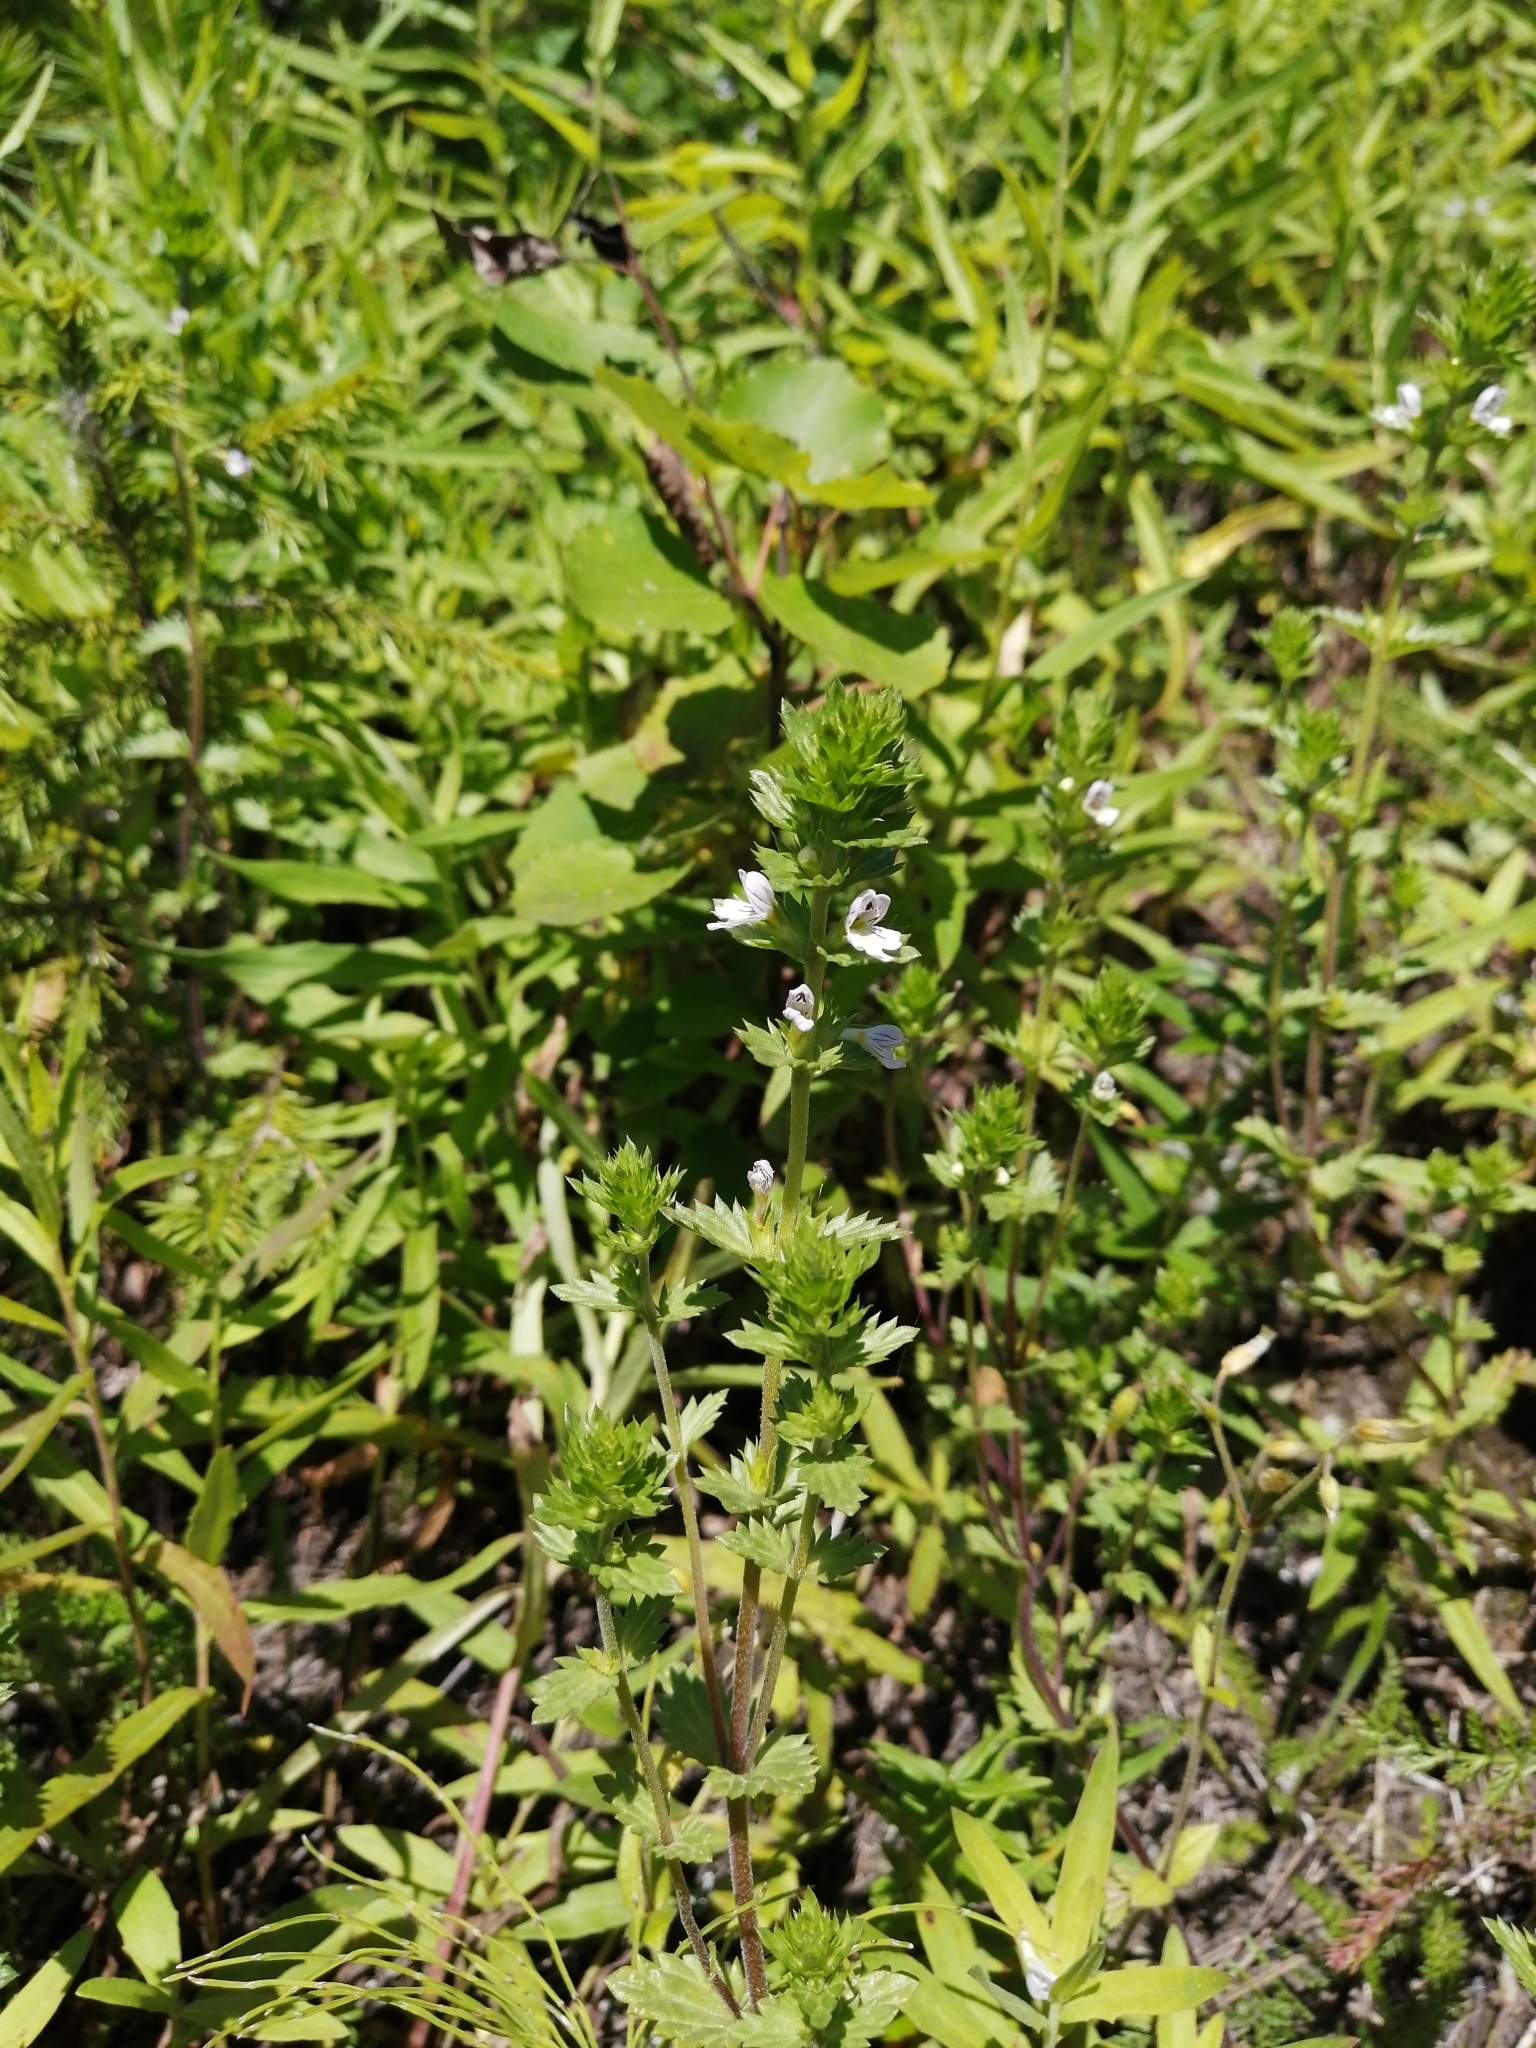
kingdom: Plantae
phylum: Tracheophyta
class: Magnoliopsida
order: Lamiales
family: Orobanchaceae
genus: Euphrasia
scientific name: Euphrasia
